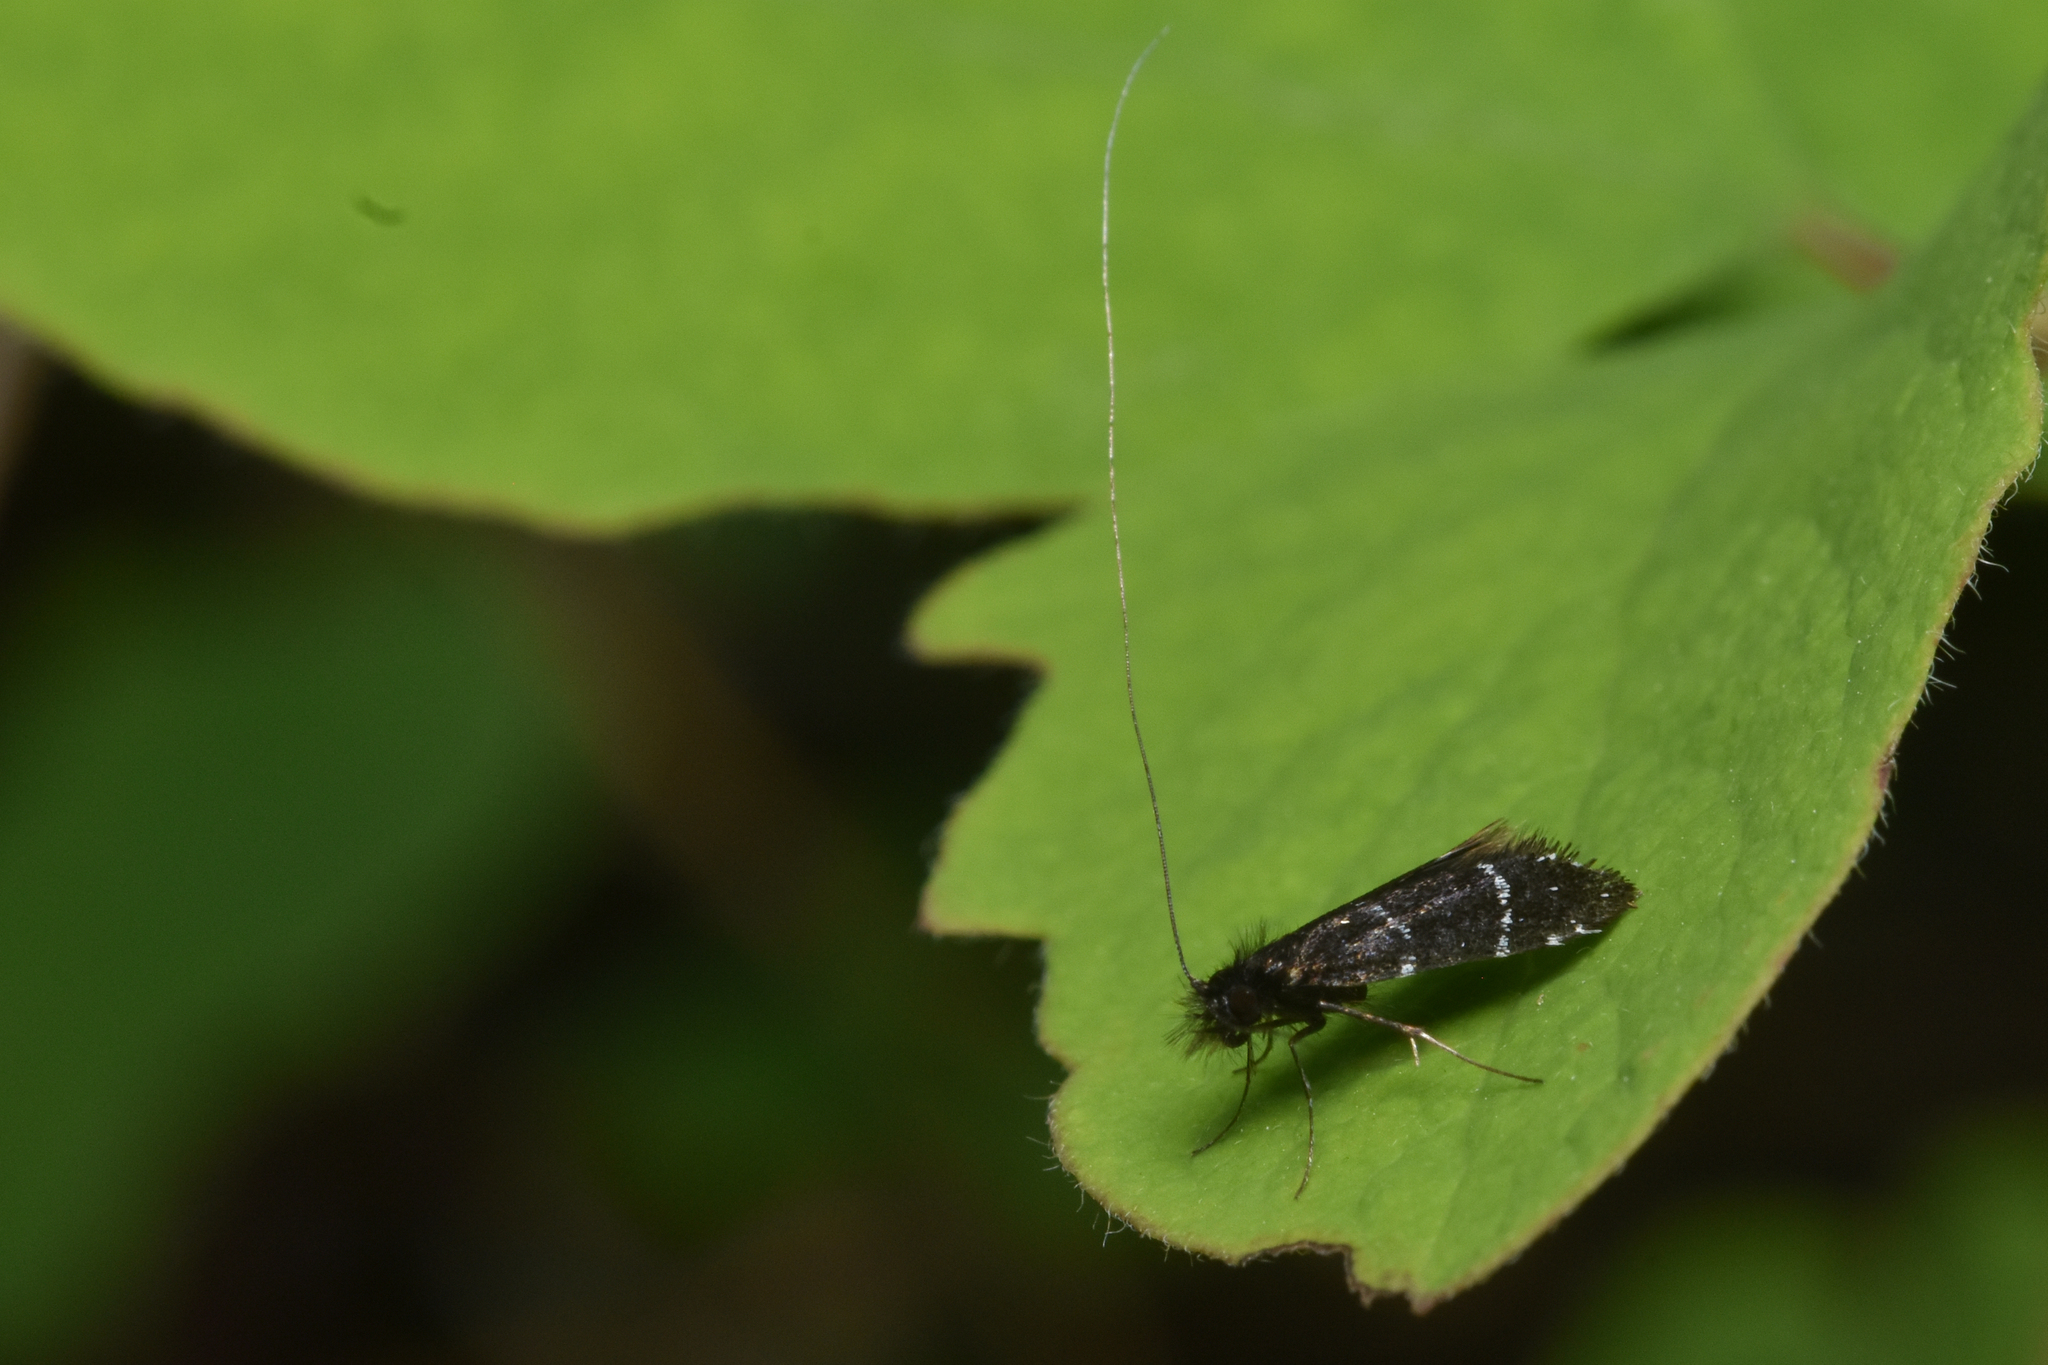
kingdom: Animalia
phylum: Arthropoda
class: Insecta
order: Lepidoptera
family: Adelidae
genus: Adela
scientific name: Adela septentrionella
